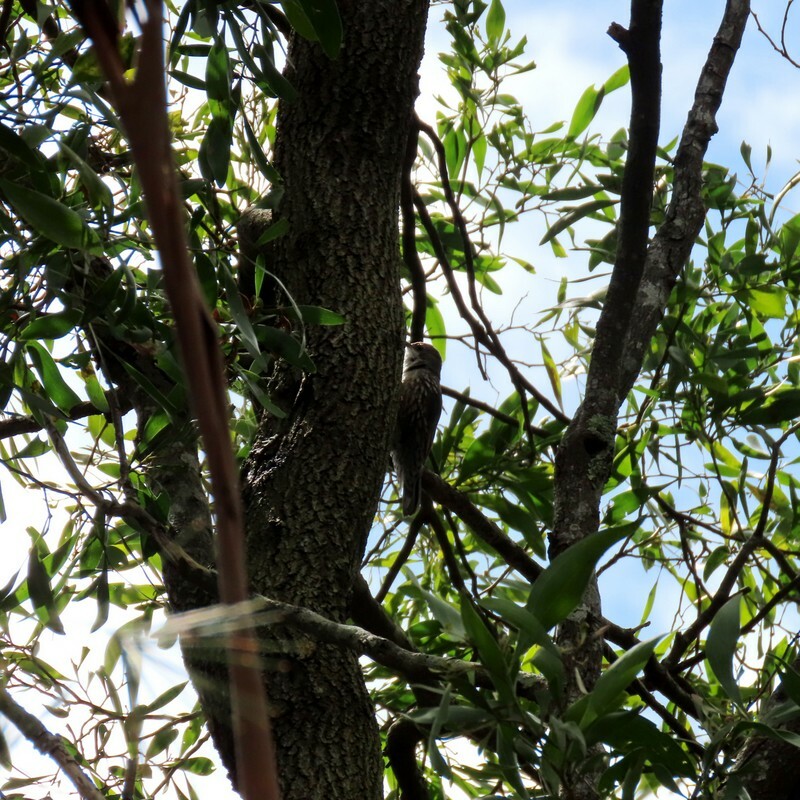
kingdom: Animalia
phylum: Chordata
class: Aves
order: Passeriformes
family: Climacteridae
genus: Cormobates
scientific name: Cormobates leucophaea
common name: White-throated treecreeper
